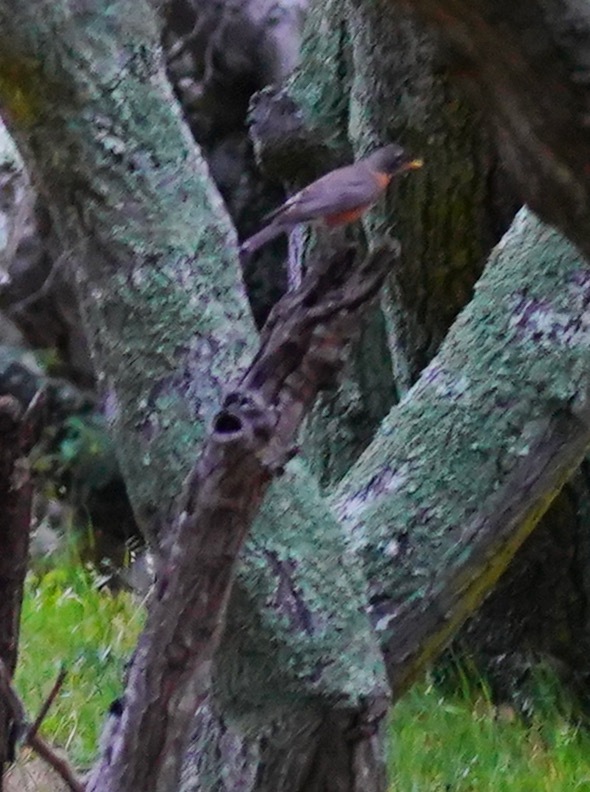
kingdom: Animalia
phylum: Chordata
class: Aves
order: Passeriformes
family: Turdidae
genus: Turdus
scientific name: Turdus migratorius
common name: American robin
